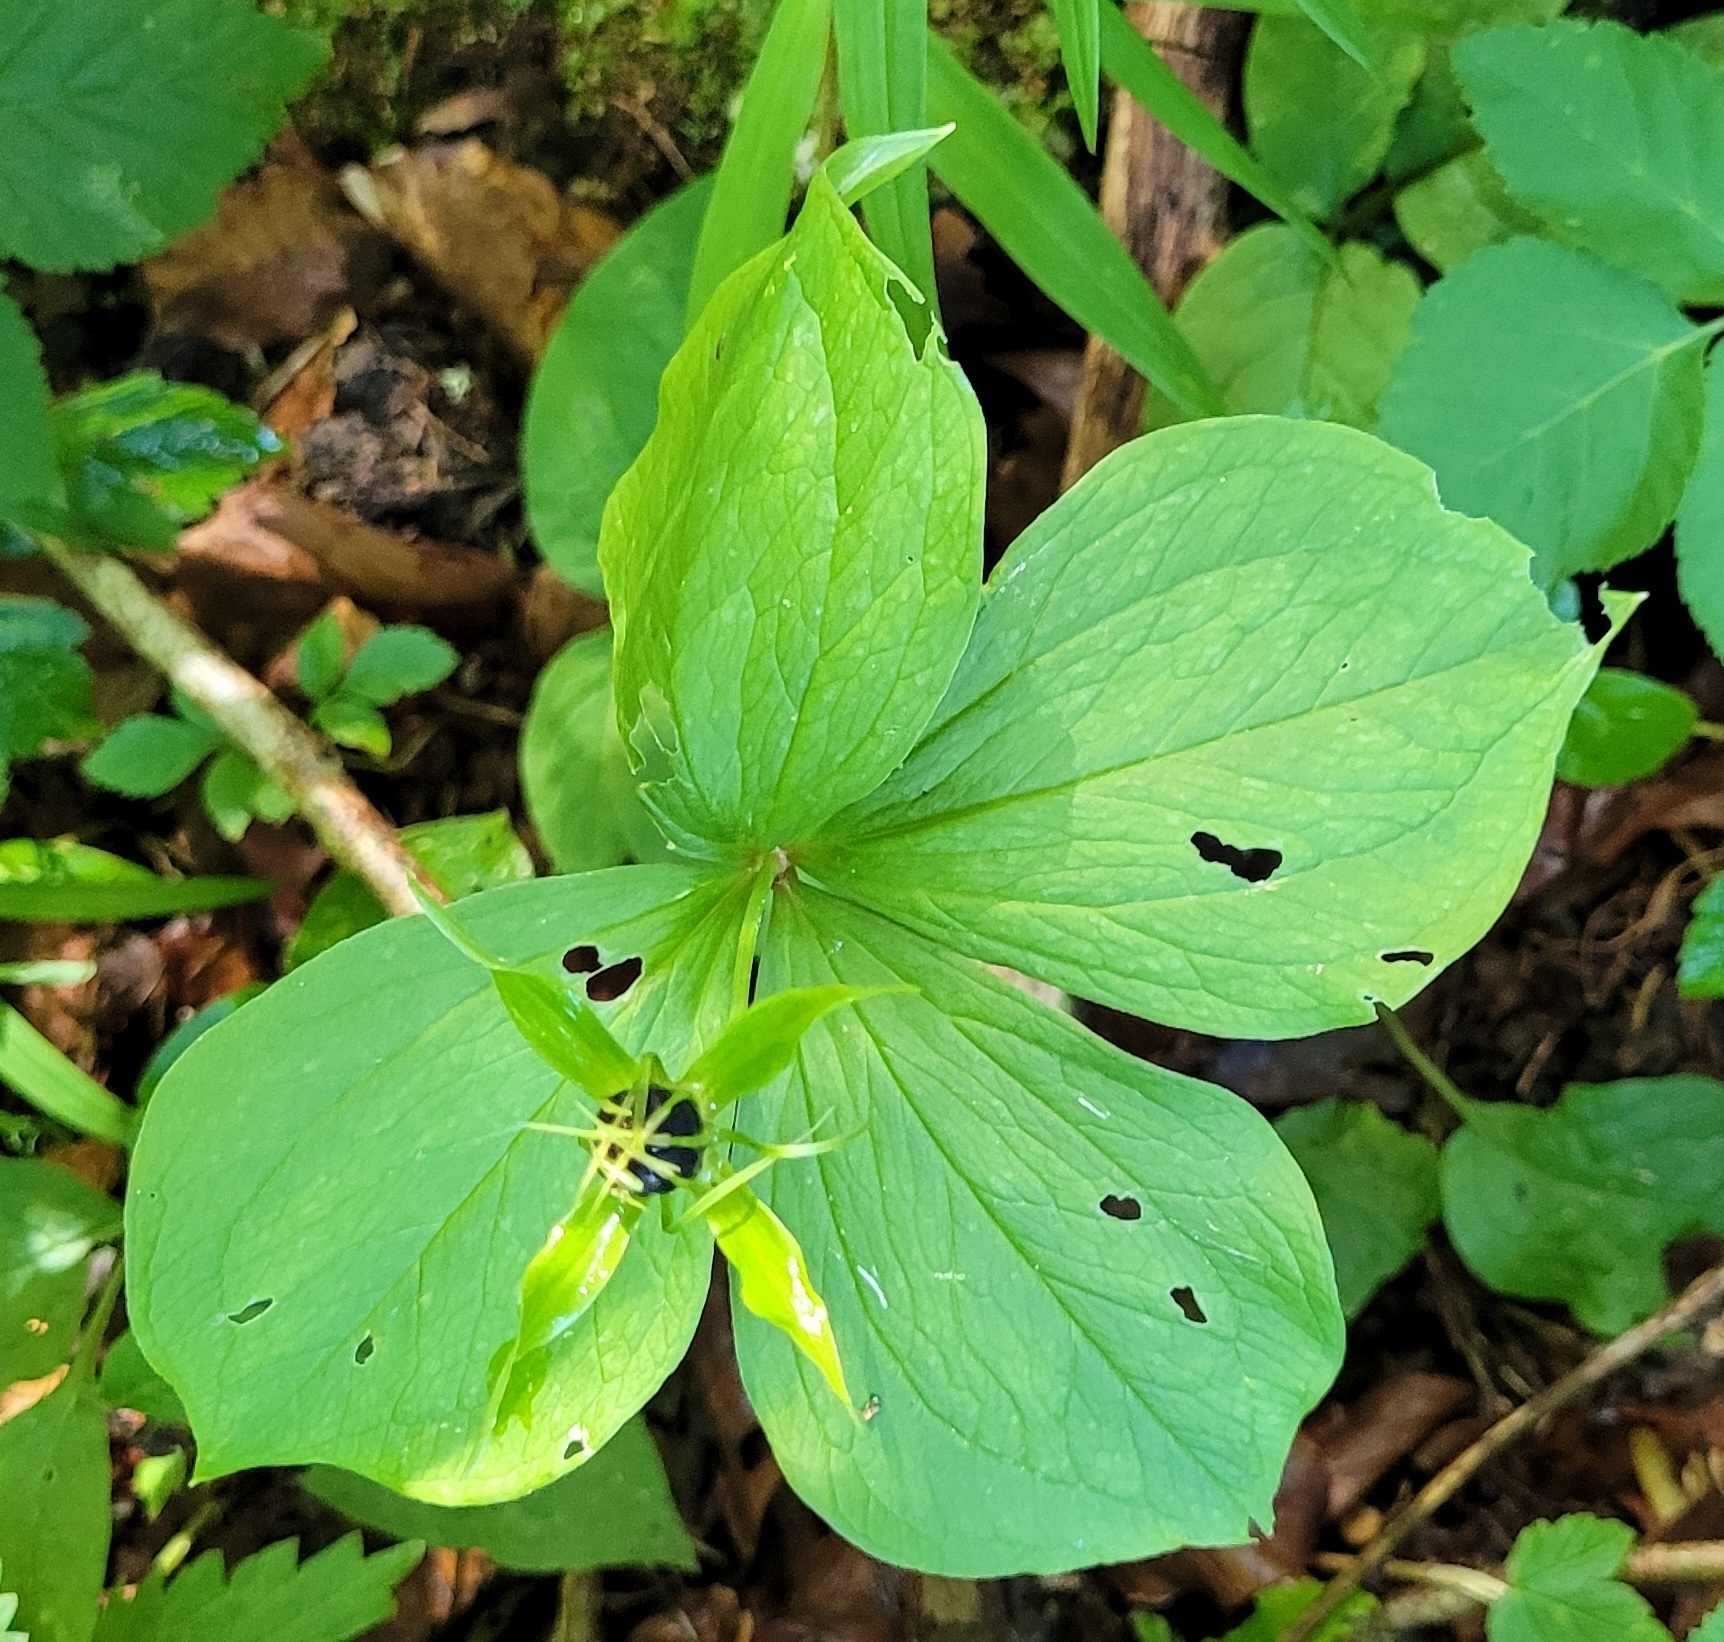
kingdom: Plantae
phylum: Tracheophyta
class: Liliopsida
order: Liliales
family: Melanthiaceae
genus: Paris
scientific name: Paris quadrifolia
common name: Herb-paris
